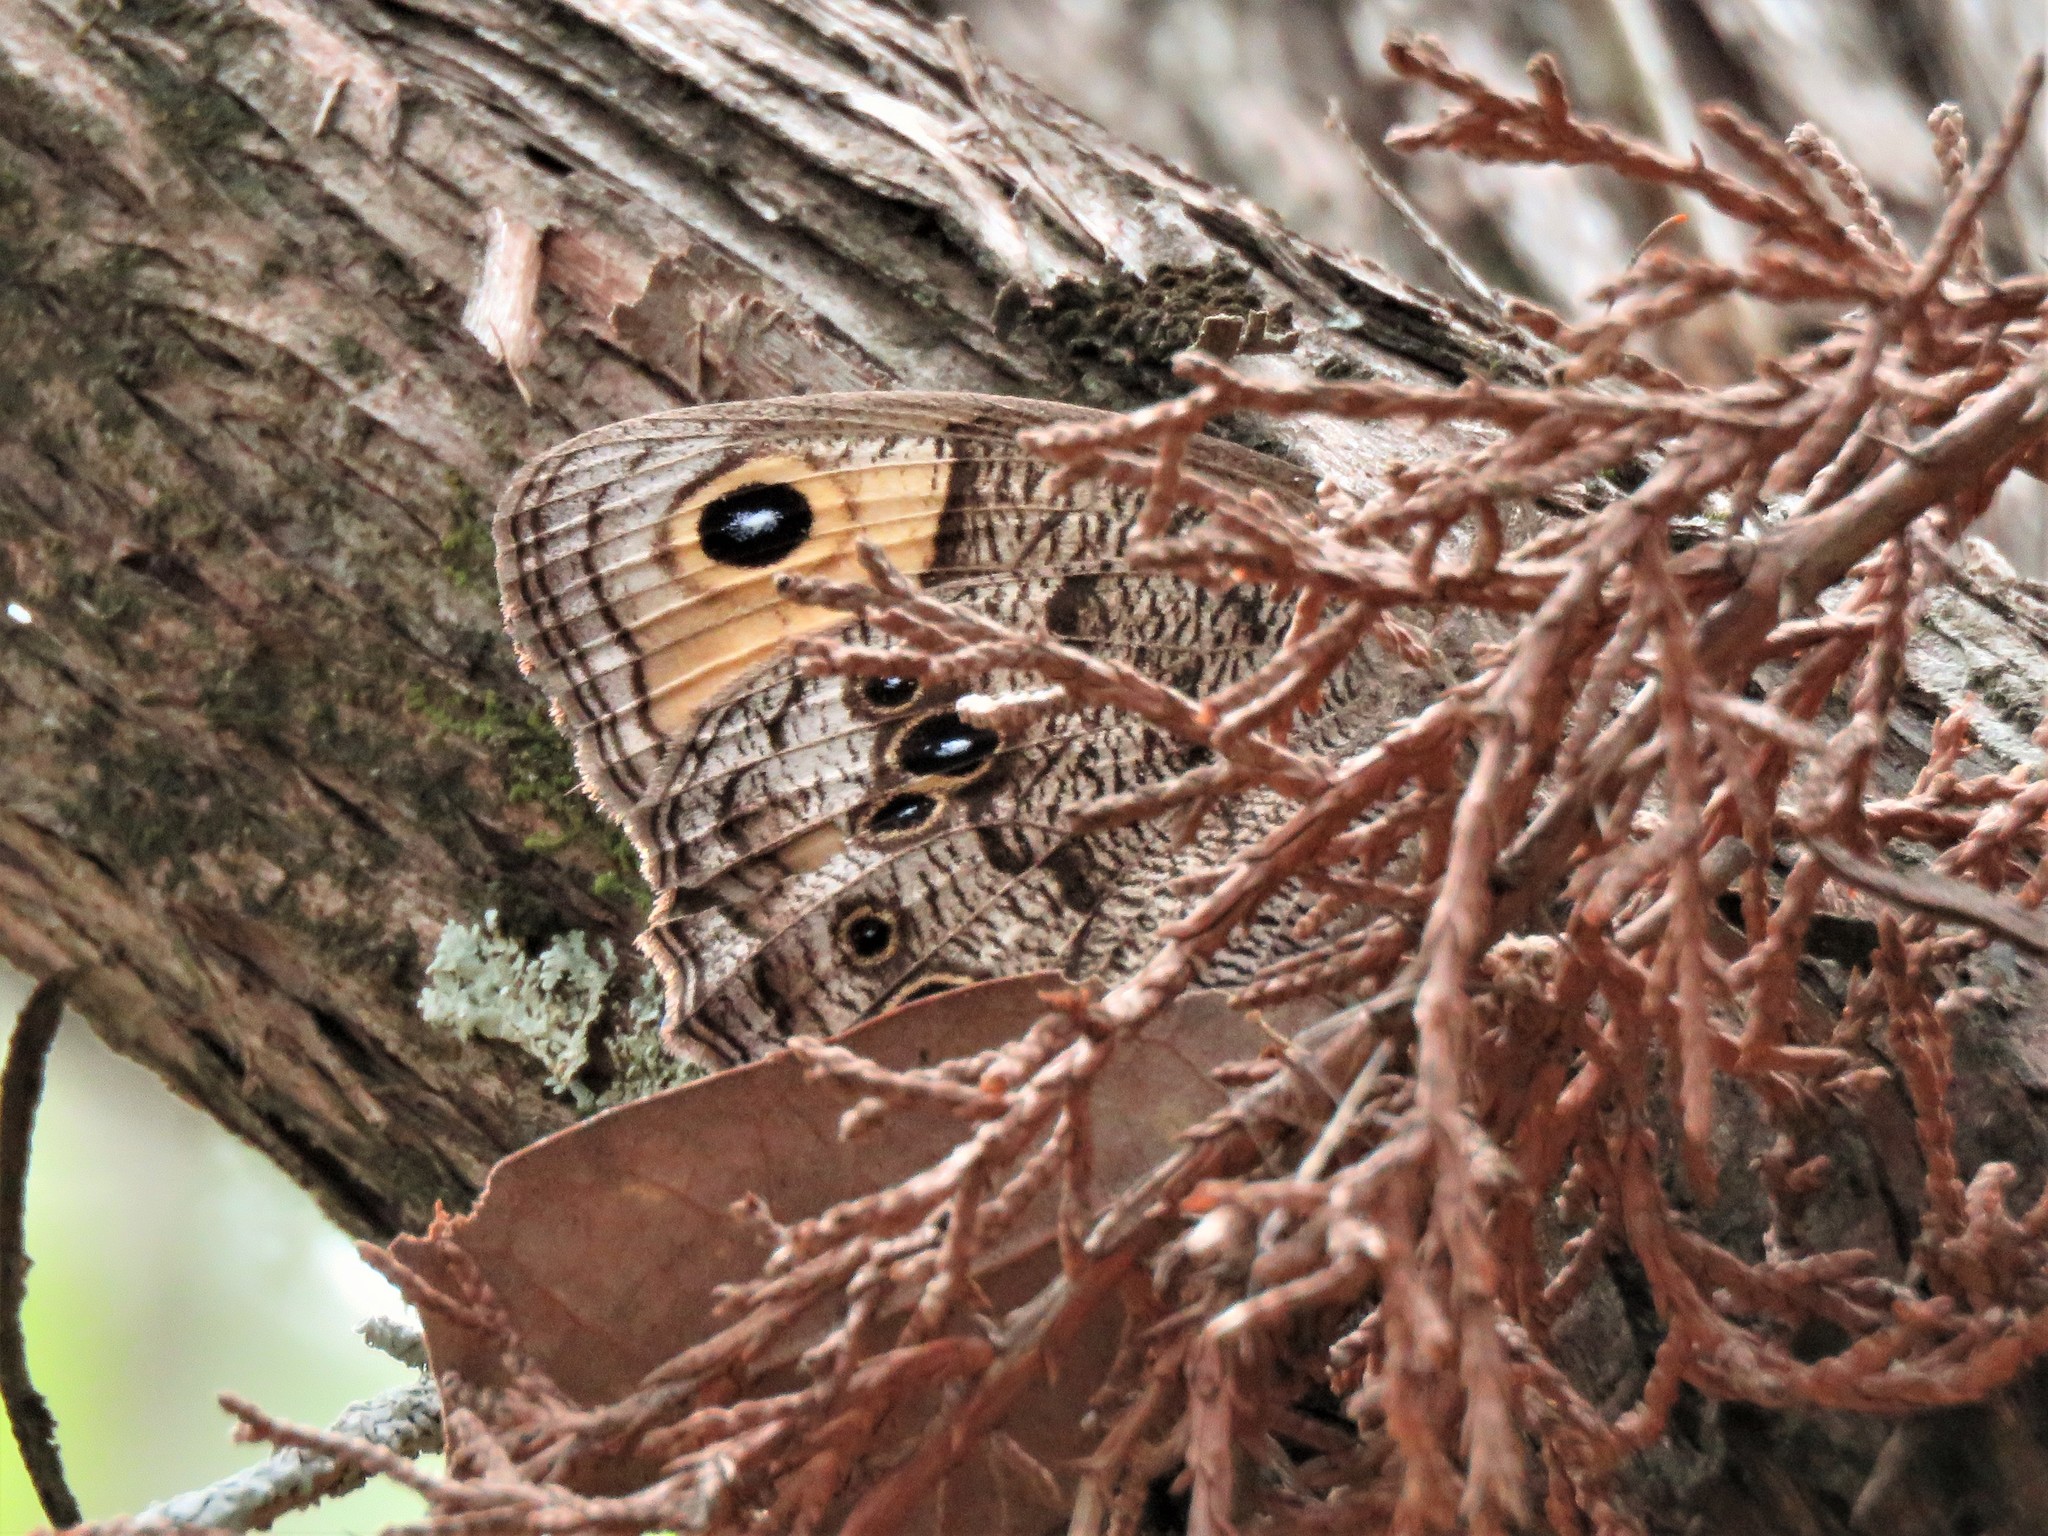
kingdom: Animalia
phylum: Arthropoda
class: Insecta
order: Lepidoptera
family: Nymphalidae
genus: Cercyonis
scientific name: Cercyonis pegala
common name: Common wood-nymph
